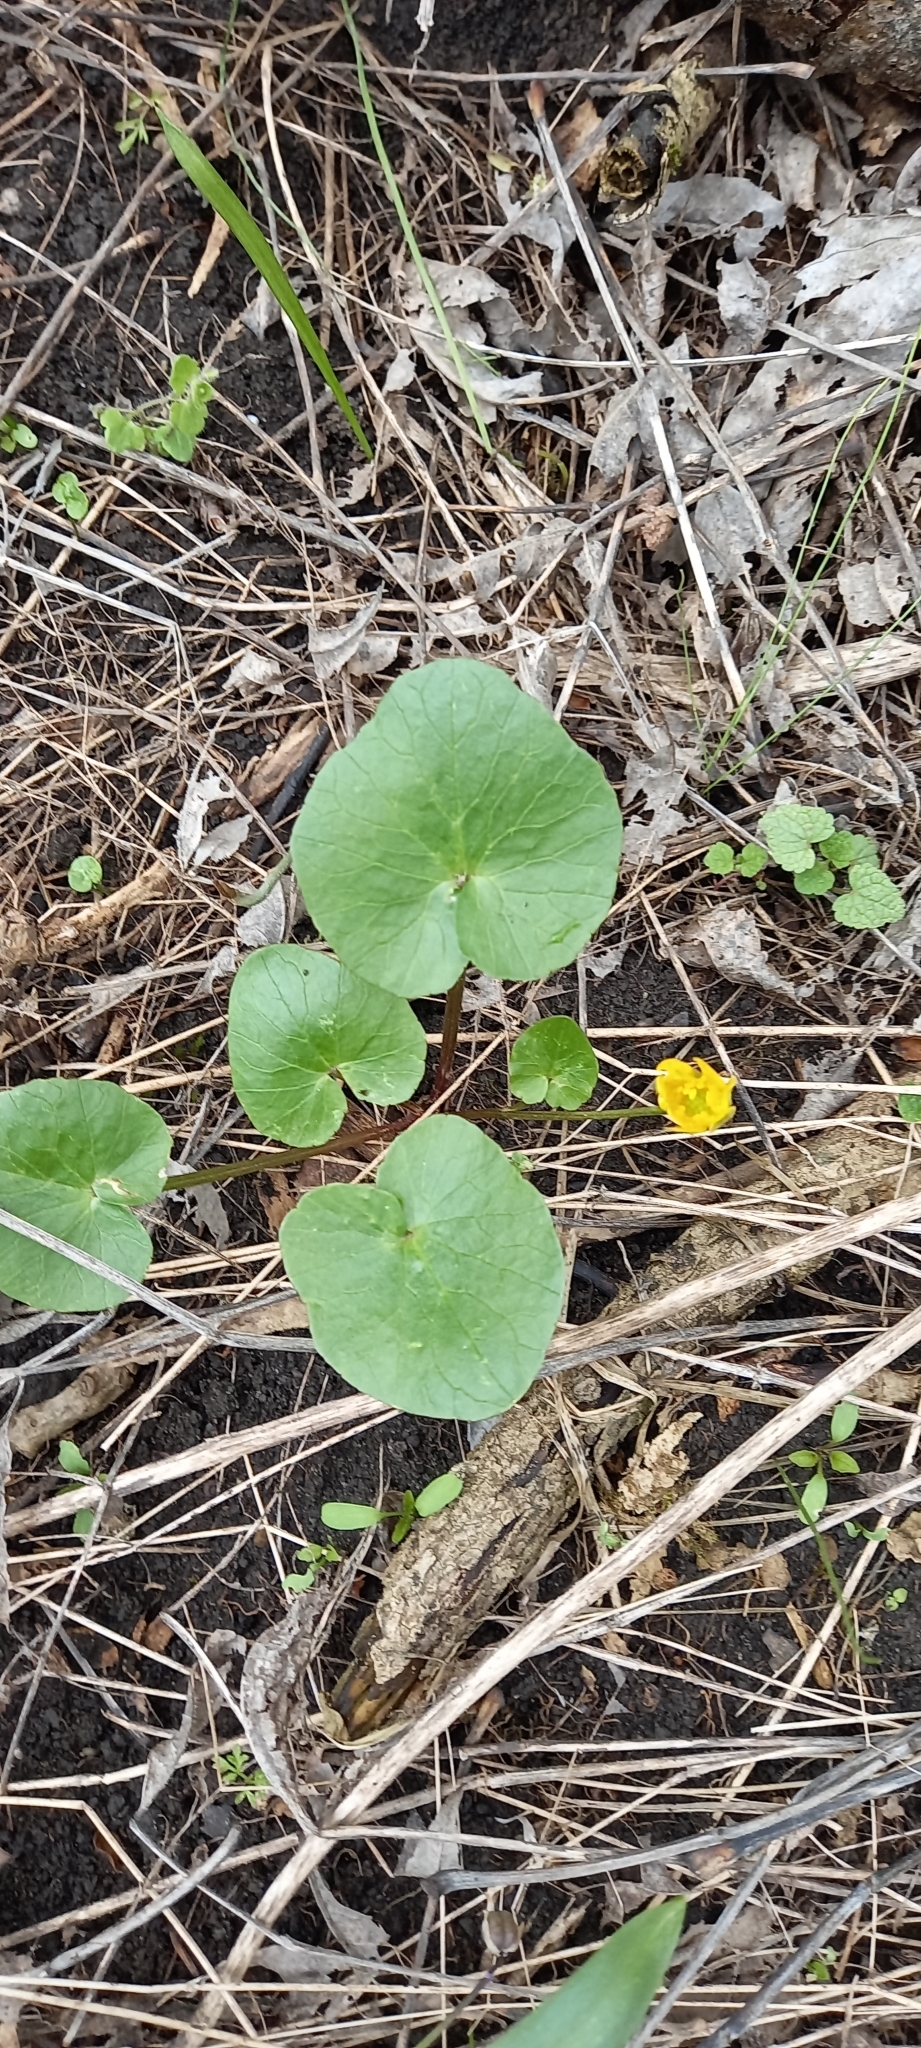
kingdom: Plantae
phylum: Tracheophyta
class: Magnoliopsida
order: Ranunculales
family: Ranunculaceae
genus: Ficaria
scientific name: Ficaria verna
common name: Lesser celandine
